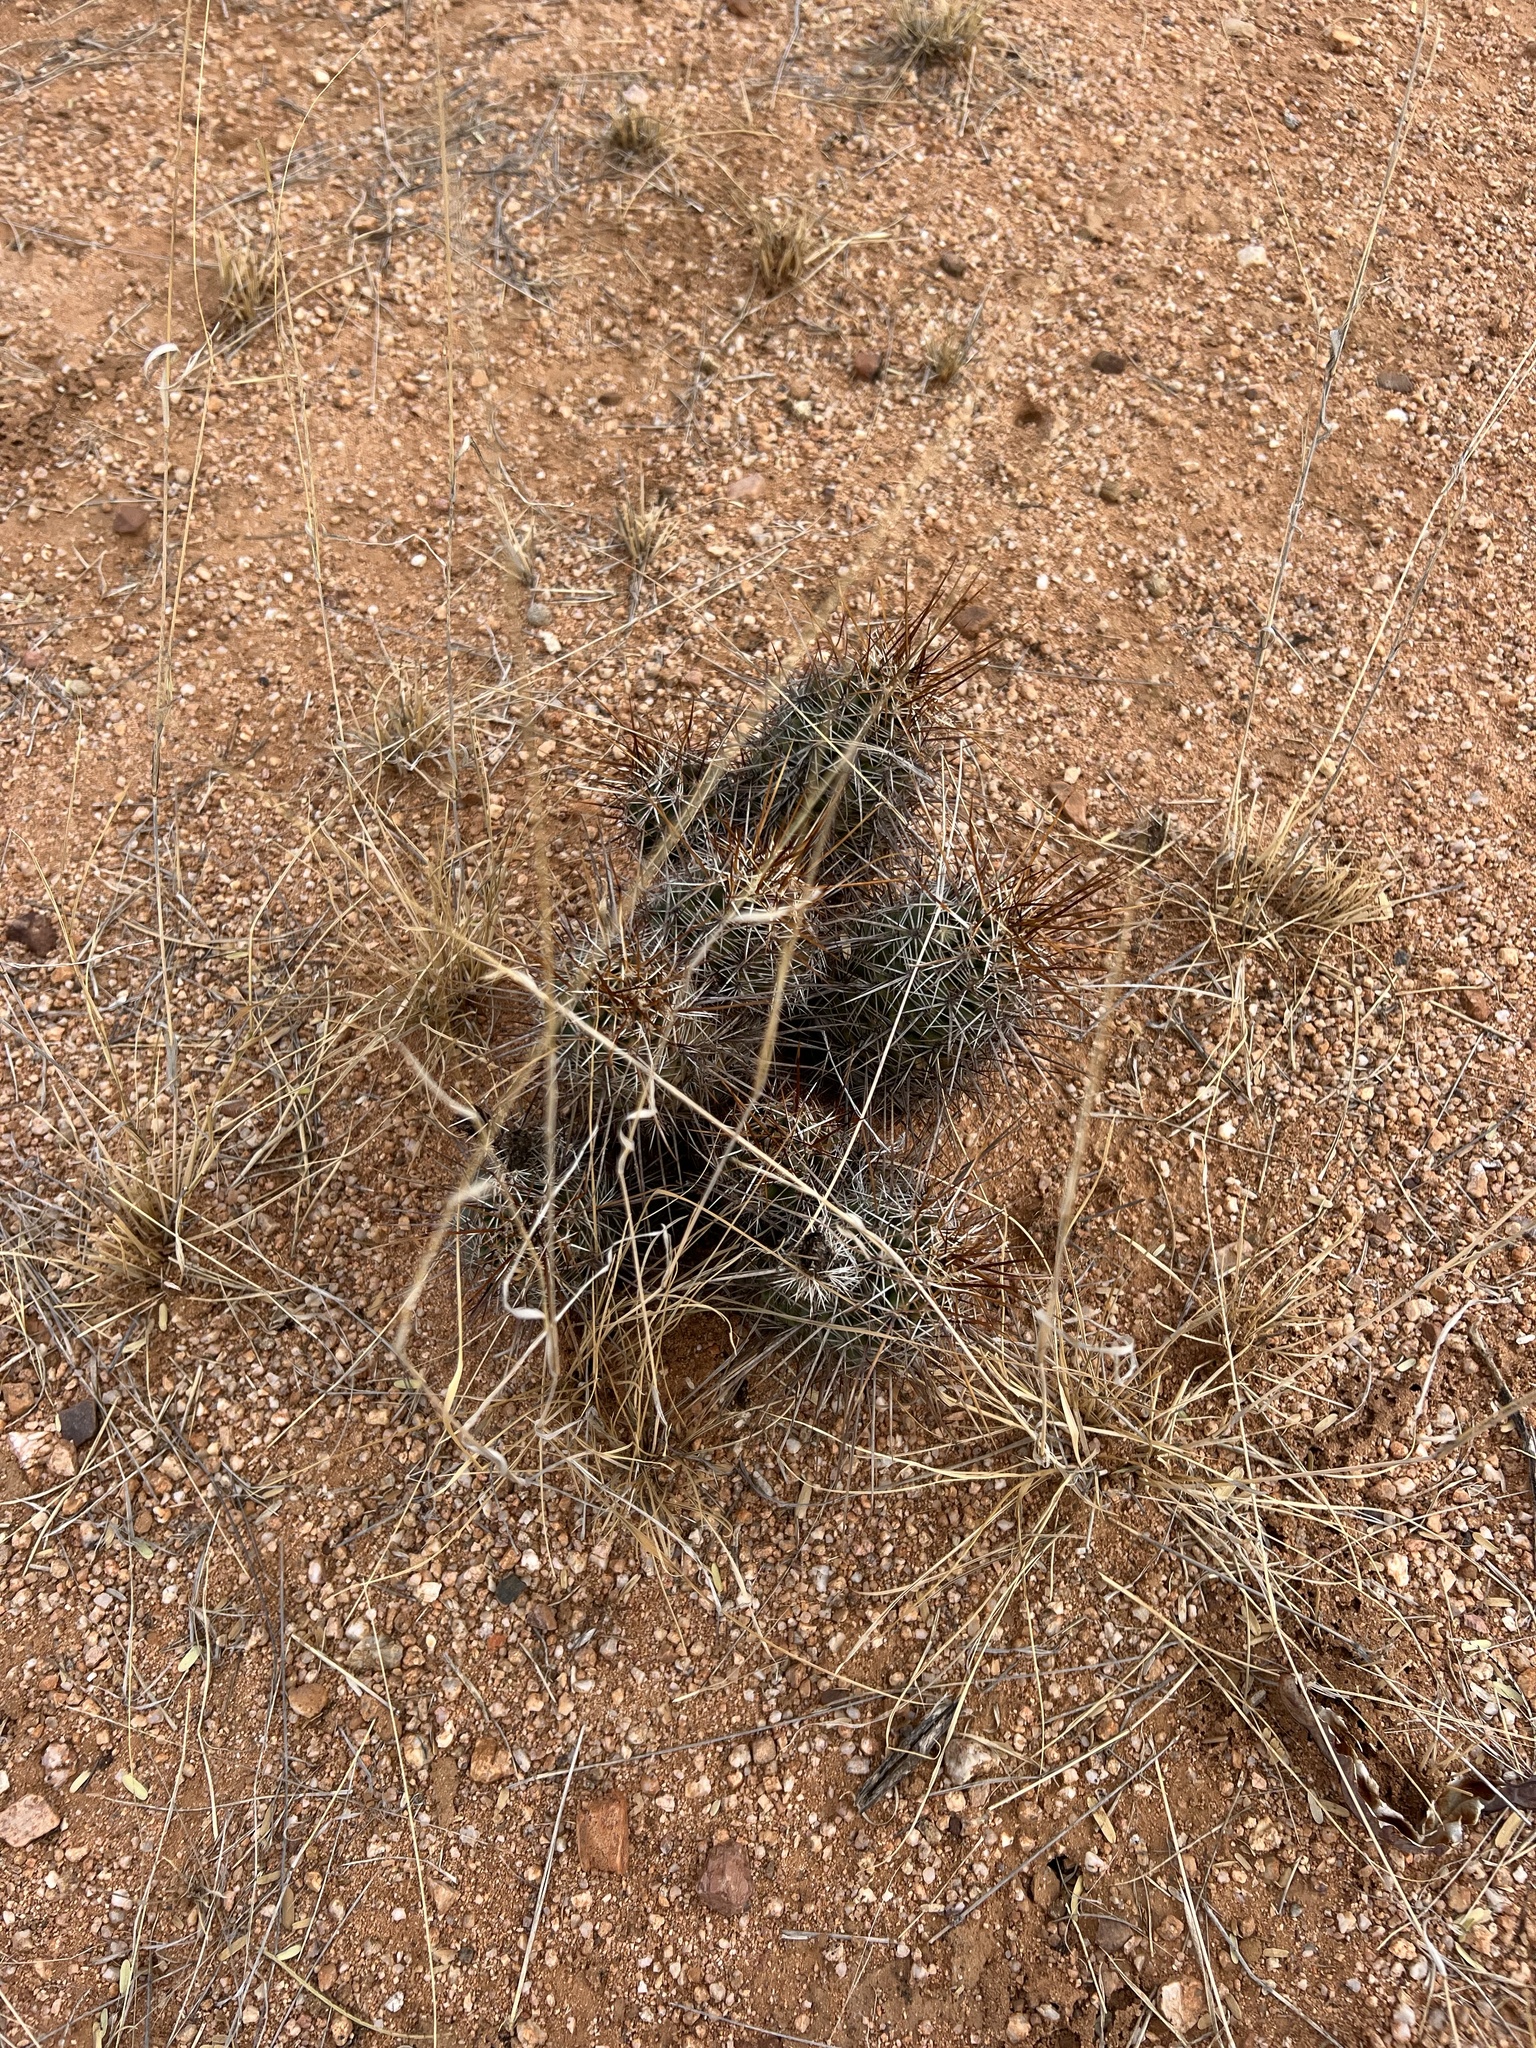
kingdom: Plantae
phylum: Tracheophyta
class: Magnoliopsida
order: Caryophyllales
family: Cactaceae
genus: Echinocereus
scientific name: Echinocereus fasciculatus
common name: Bundle hedgehog
